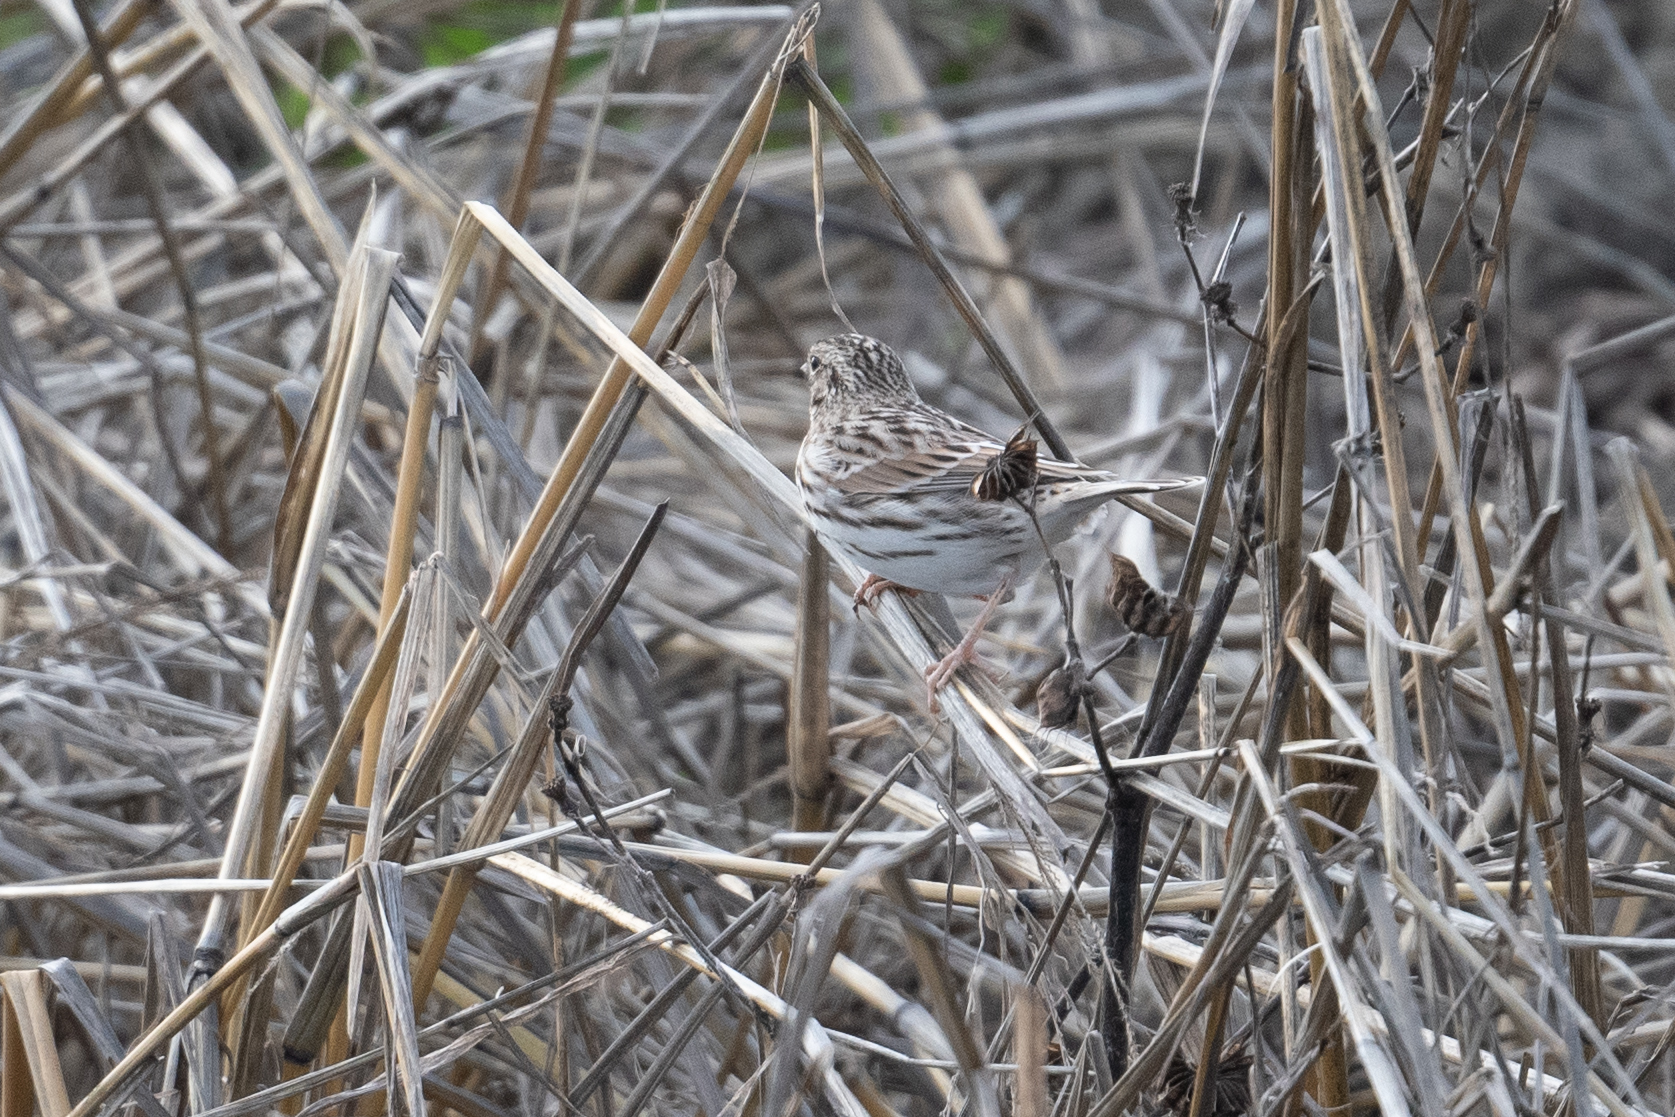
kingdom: Animalia
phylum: Chordata
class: Aves
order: Passeriformes
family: Passerellidae
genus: Passerculus
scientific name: Passerculus sandwichensis
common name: Savannah sparrow
